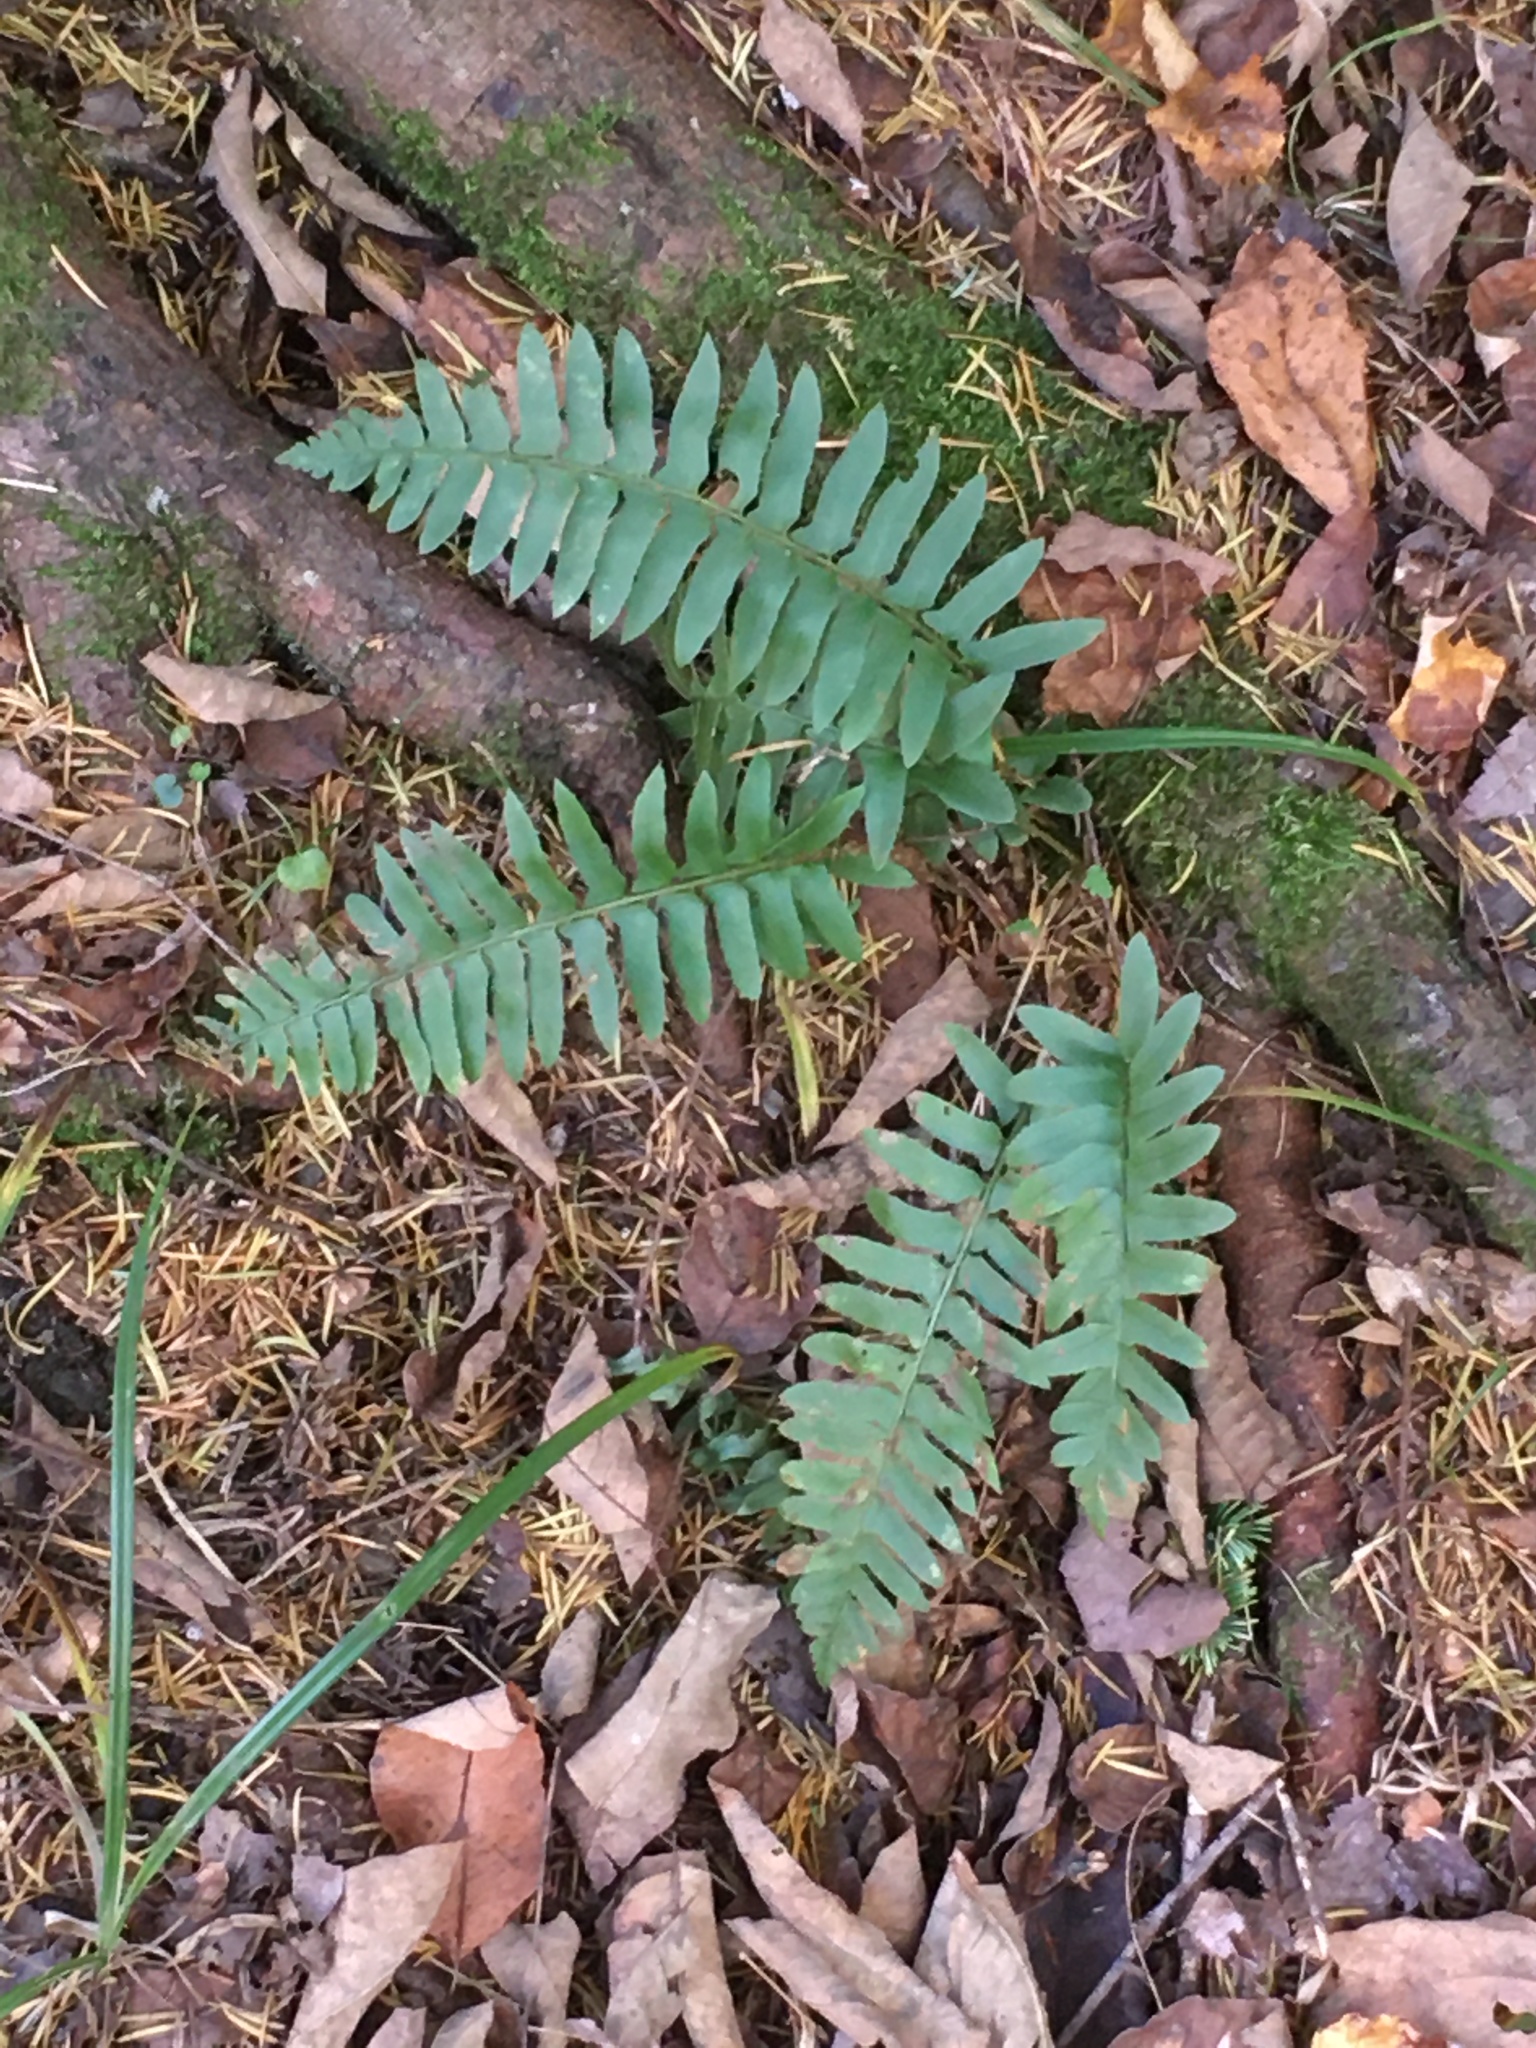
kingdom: Plantae
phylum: Tracheophyta
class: Polypodiopsida
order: Polypodiales
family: Dryopteridaceae
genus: Polystichum
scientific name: Polystichum acrostichoides
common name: Christmas fern
